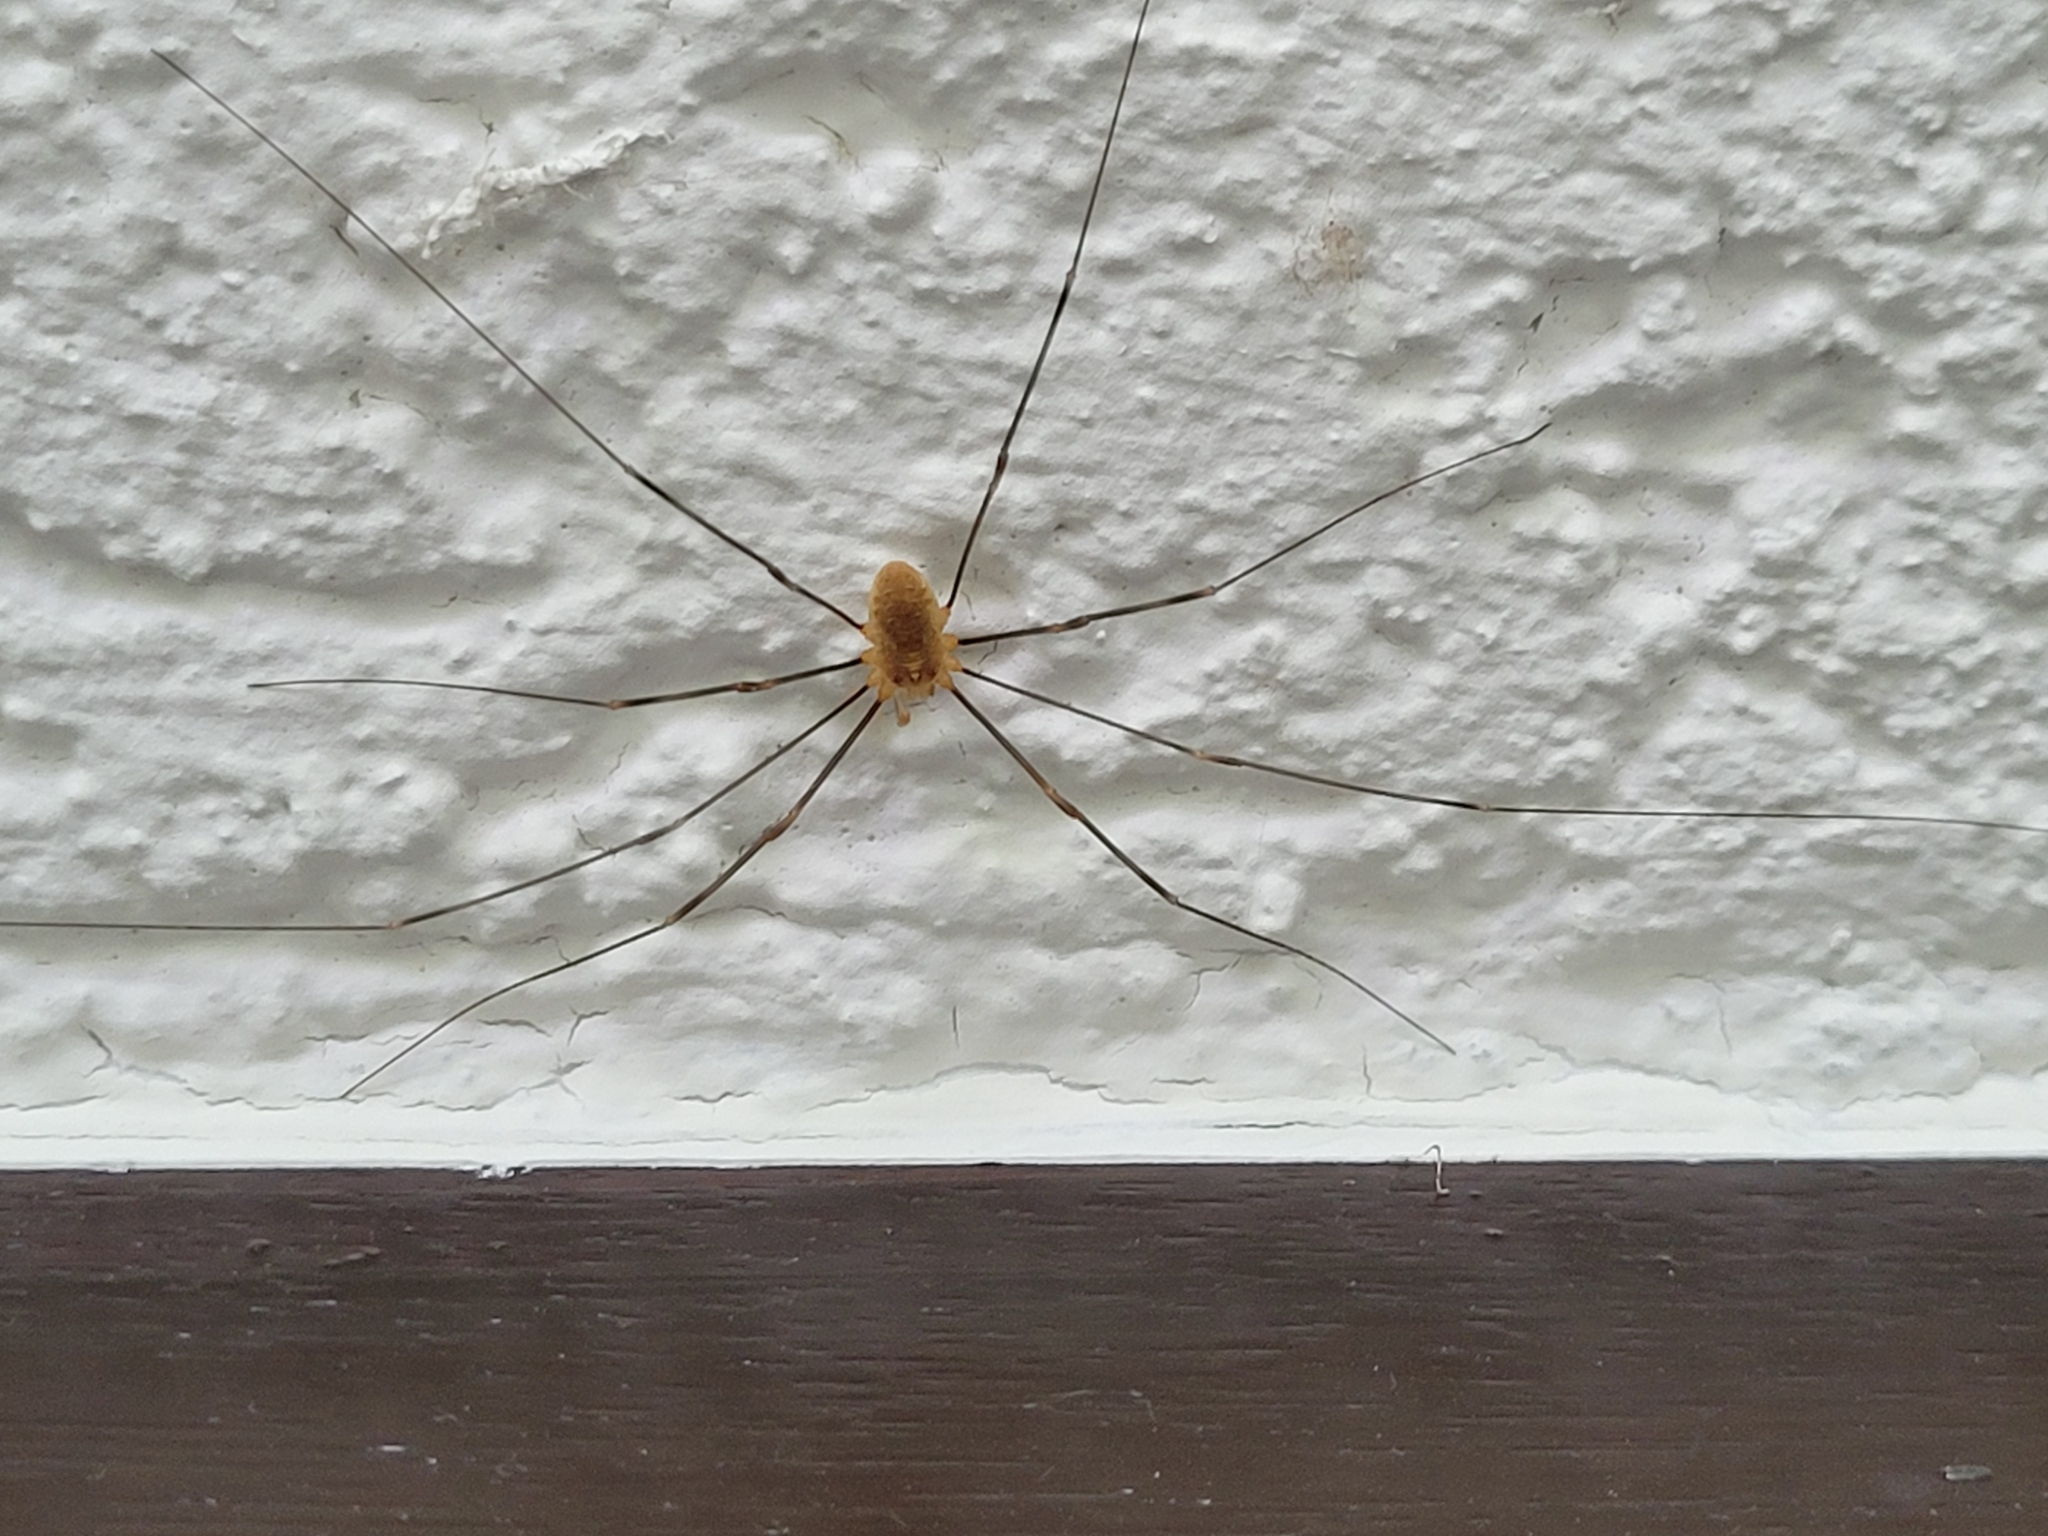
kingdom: Animalia
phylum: Arthropoda
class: Arachnida
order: Opiliones
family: Phalangiidae
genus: Opilio
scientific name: Opilio canestrinii
